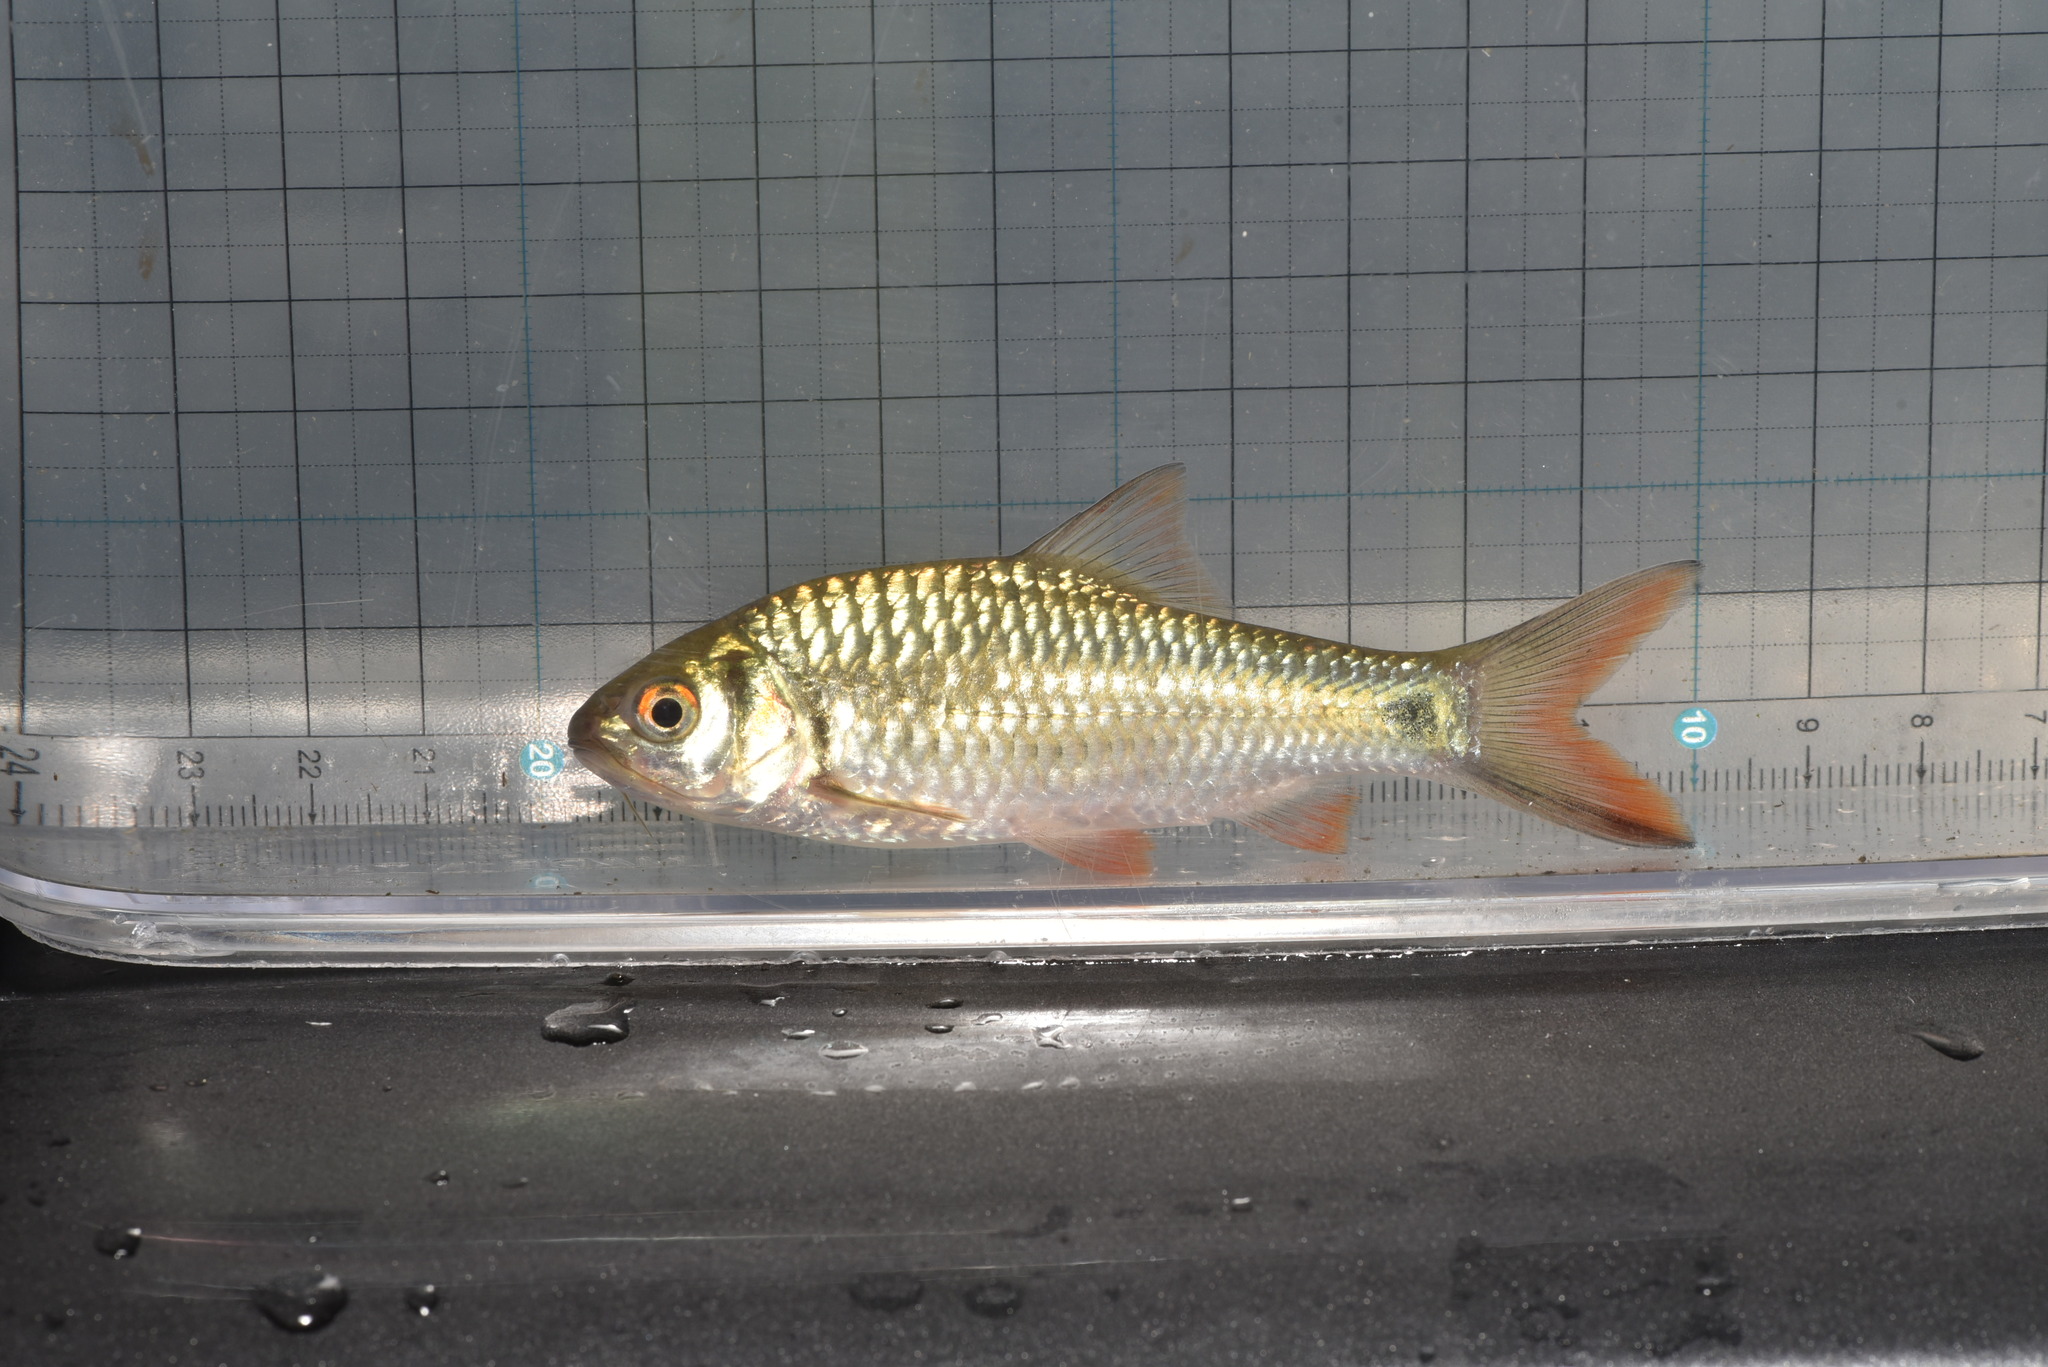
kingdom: Animalia
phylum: Chordata
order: Cypriniformes
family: Cyprinidae
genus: Systomus
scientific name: Systomus orphoides
